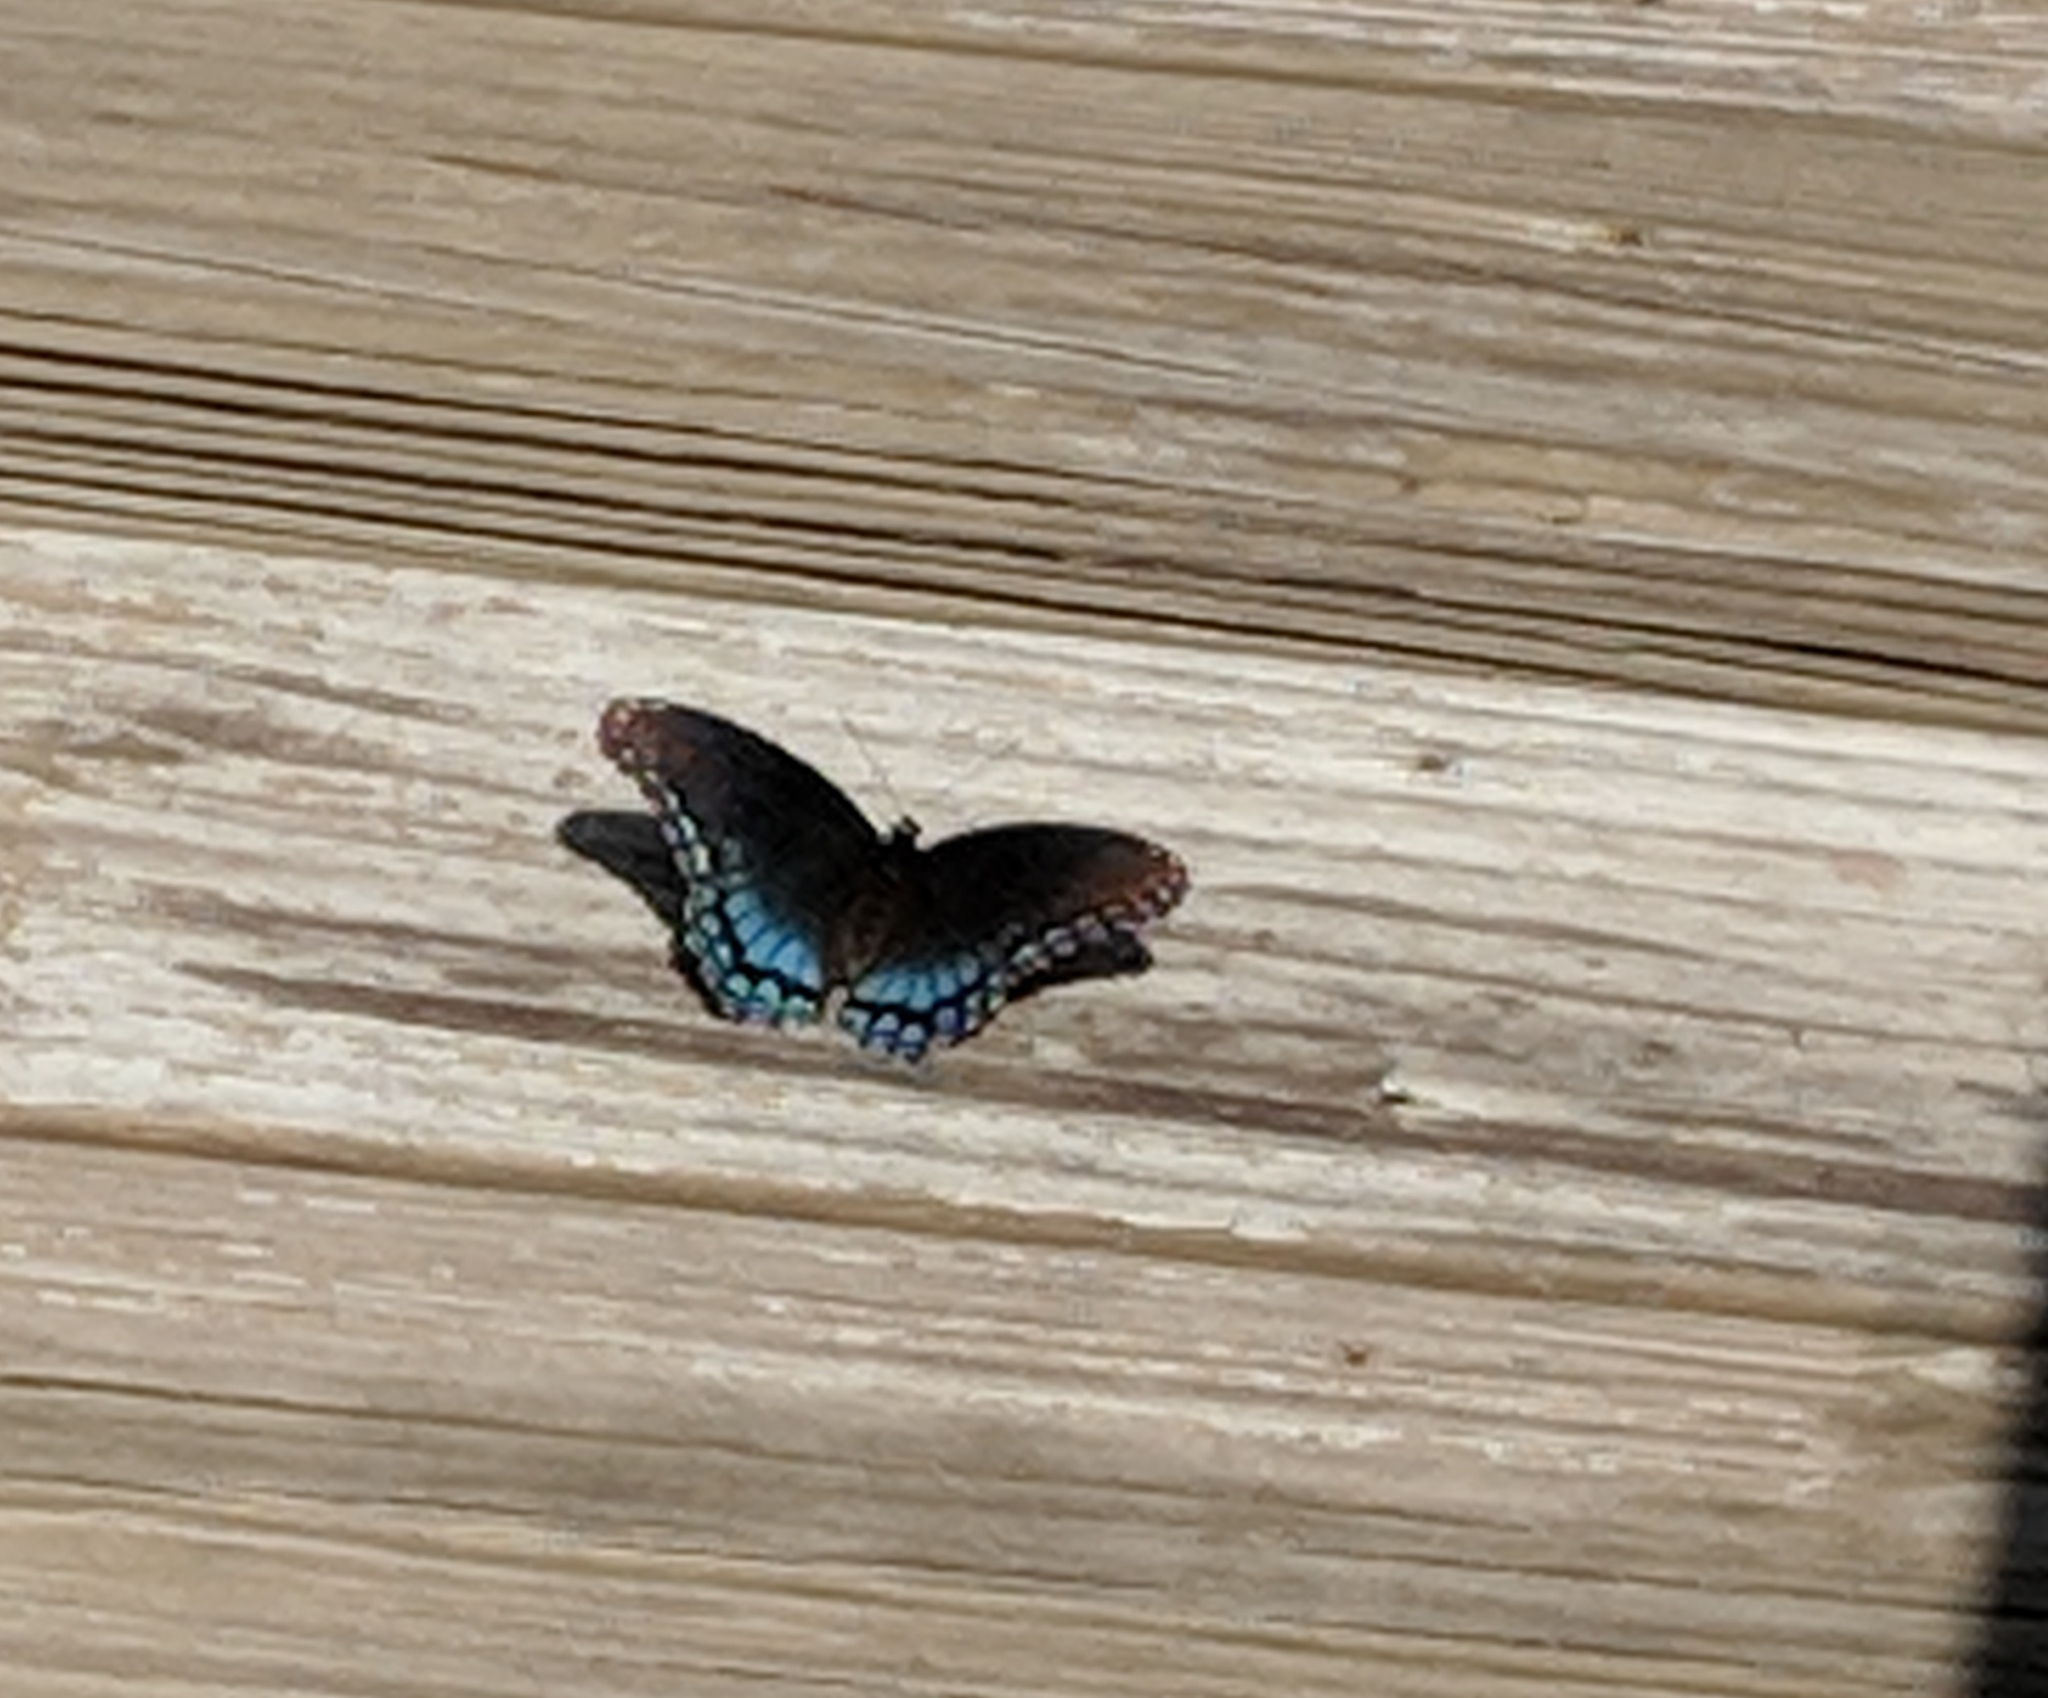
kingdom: Animalia
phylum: Arthropoda
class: Insecta
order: Lepidoptera
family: Nymphalidae
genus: Limenitis
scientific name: Limenitis arthemis
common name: Red-spotted admiral
